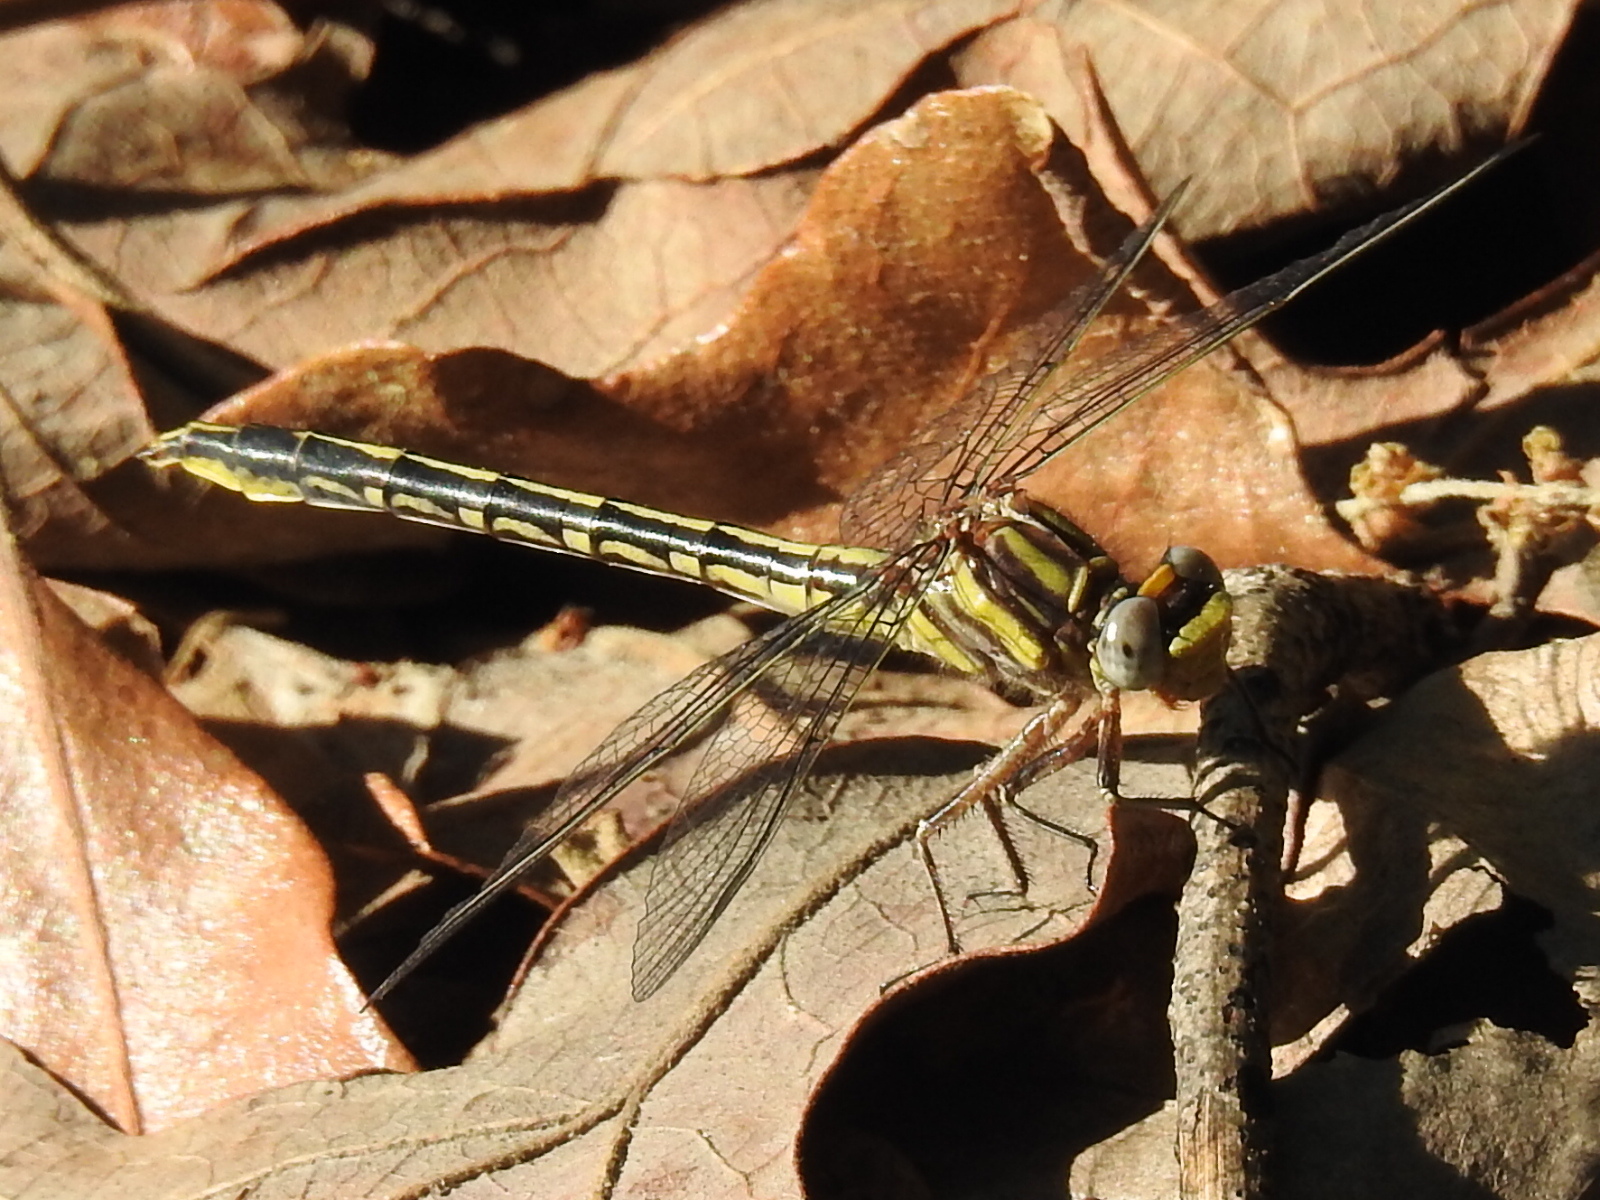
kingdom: Animalia
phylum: Arthropoda
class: Insecta
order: Odonata
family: Gomphidae
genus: Phanogomphus
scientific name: Phanogomphus oklahomensis
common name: Oklahoma clubtail
